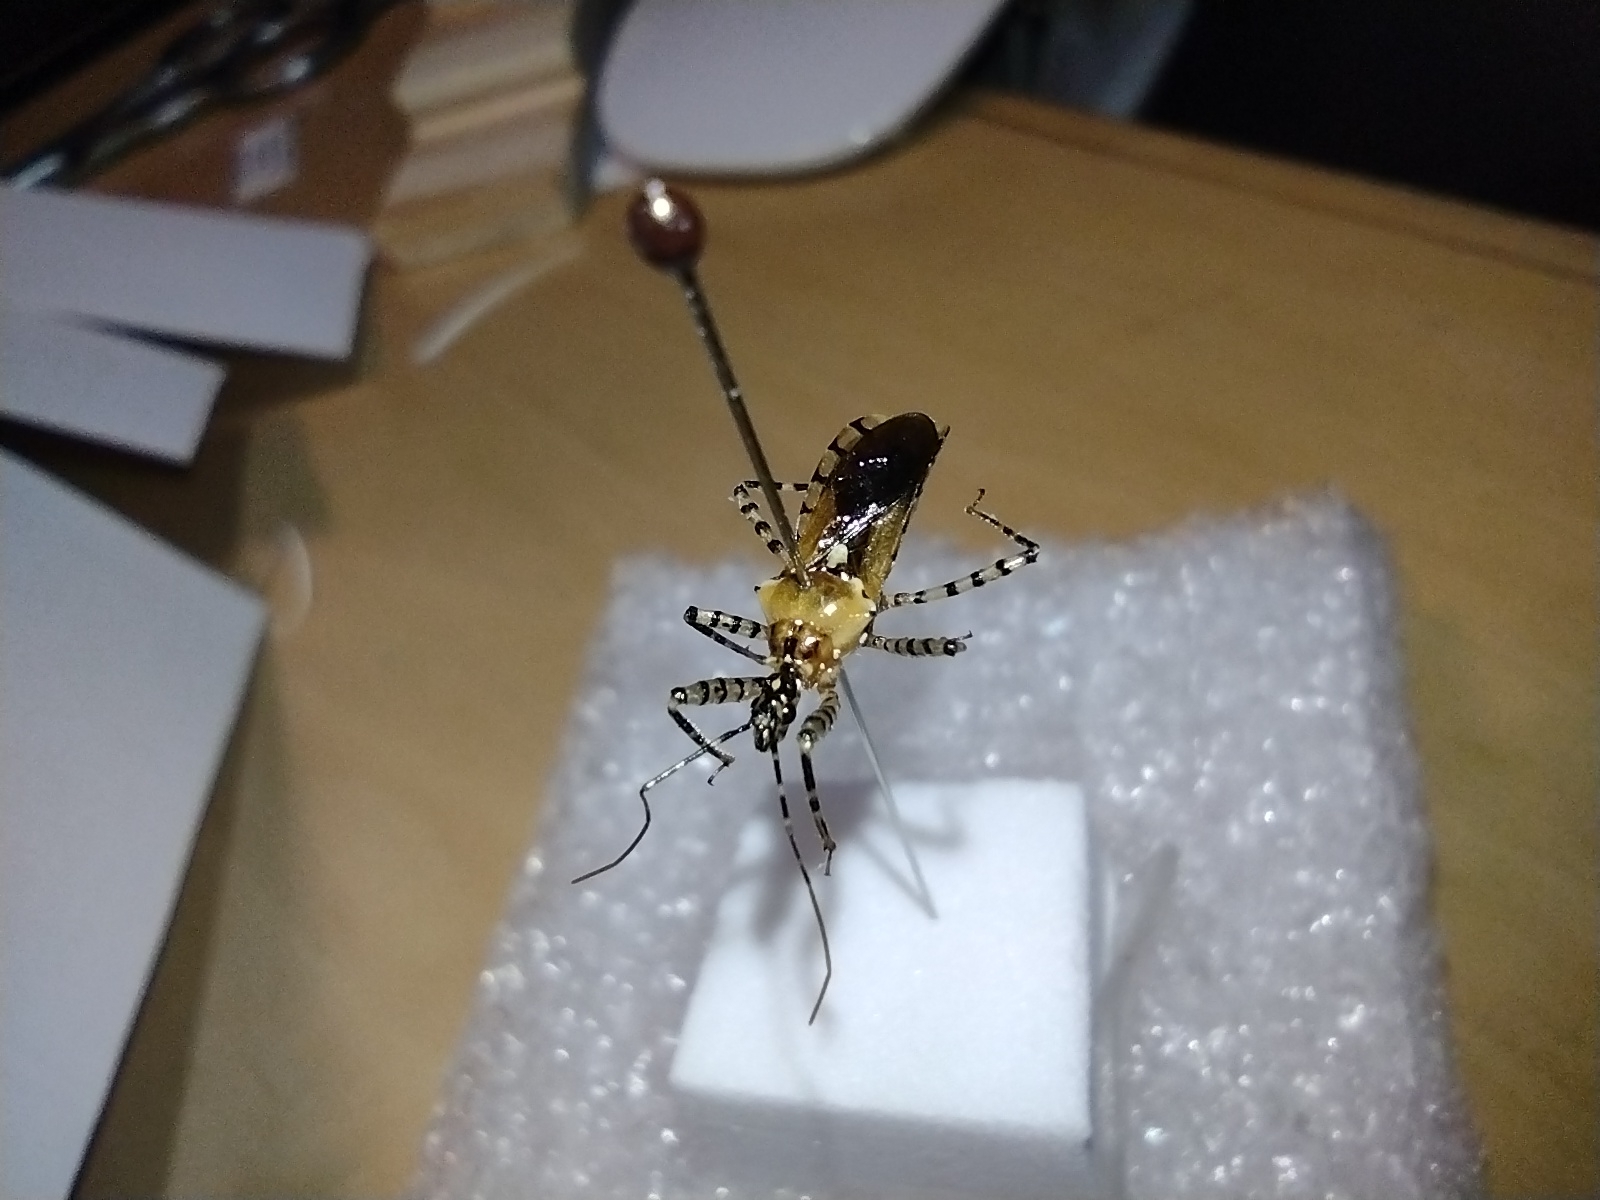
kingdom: Animalia
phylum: Arthropoda
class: Insecta
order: Hemiptera
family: Reduviidae
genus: Pselliopus
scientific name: Pselliopus cinctus
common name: Ringed assassin bug
